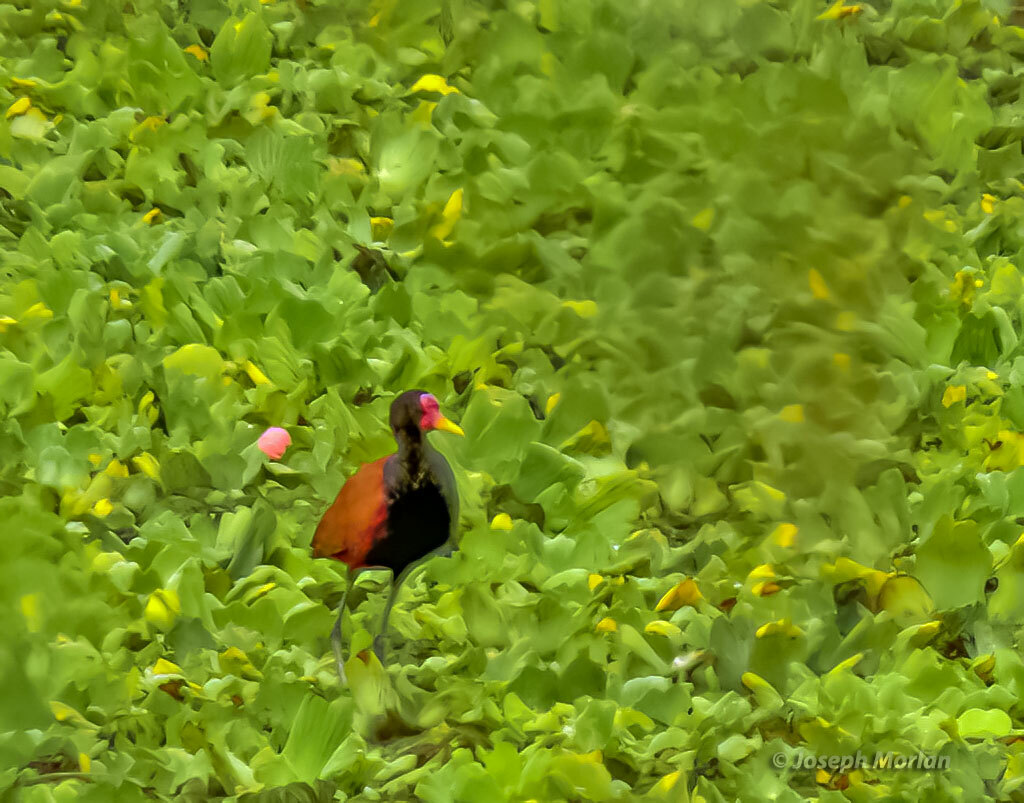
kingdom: Animalia
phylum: Chordata
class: Aves
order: Charadriiformes
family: Jacanidae
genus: Jacana
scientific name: Jacana jacana
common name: Wattled jacana
